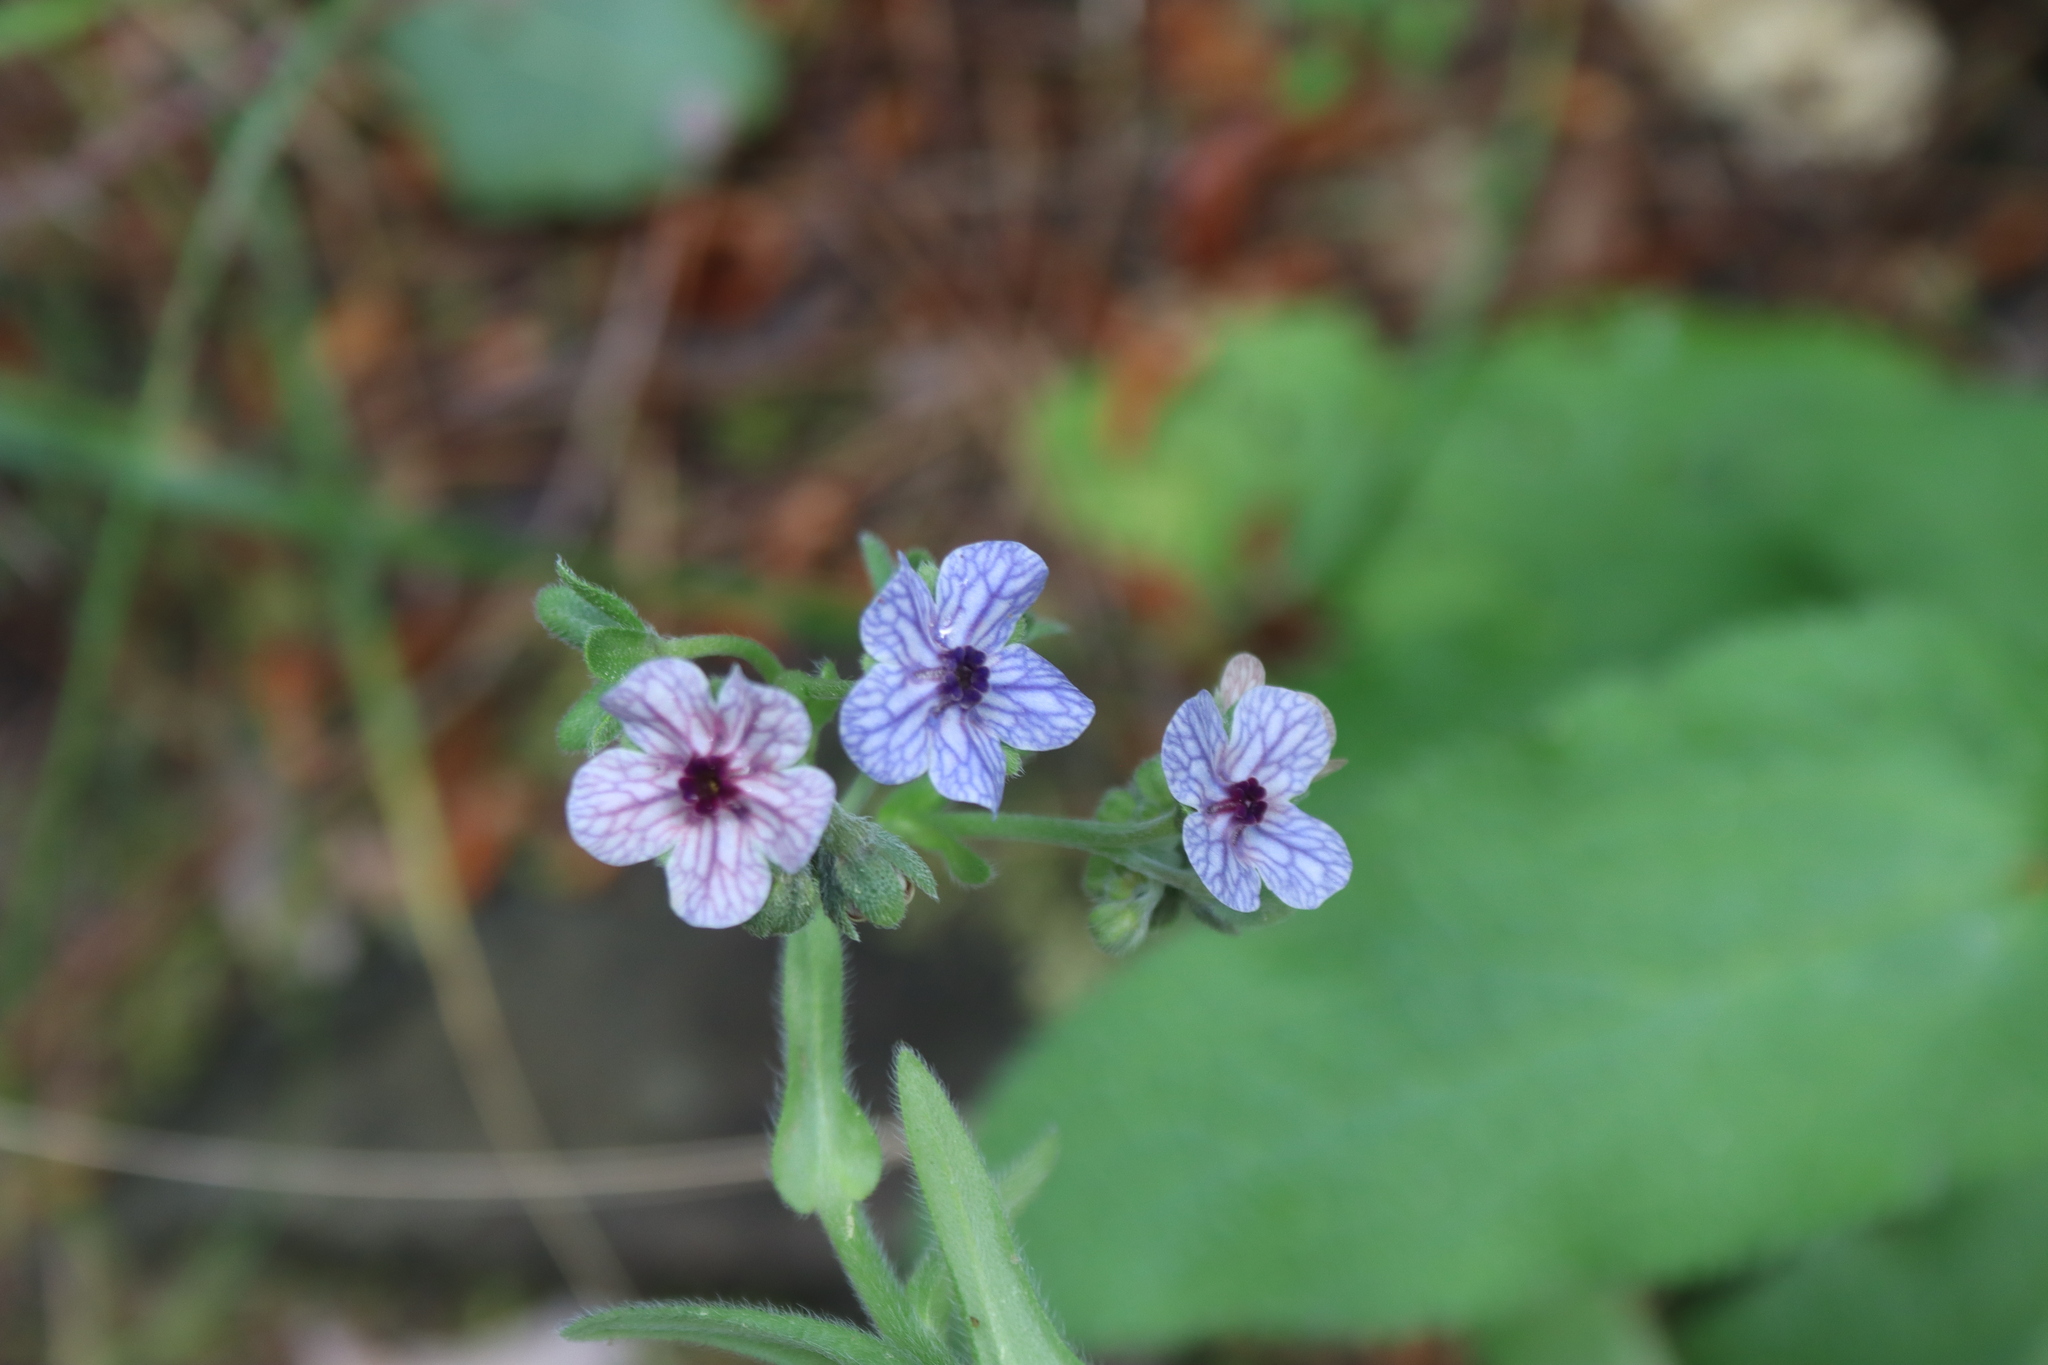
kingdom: Plantae
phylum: Tracheophyta
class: Magnoliopsida
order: Boraginales
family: Boraginaceae
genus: Cynoglossum
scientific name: Cynoglossum creticum
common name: Blue hound's tongue
